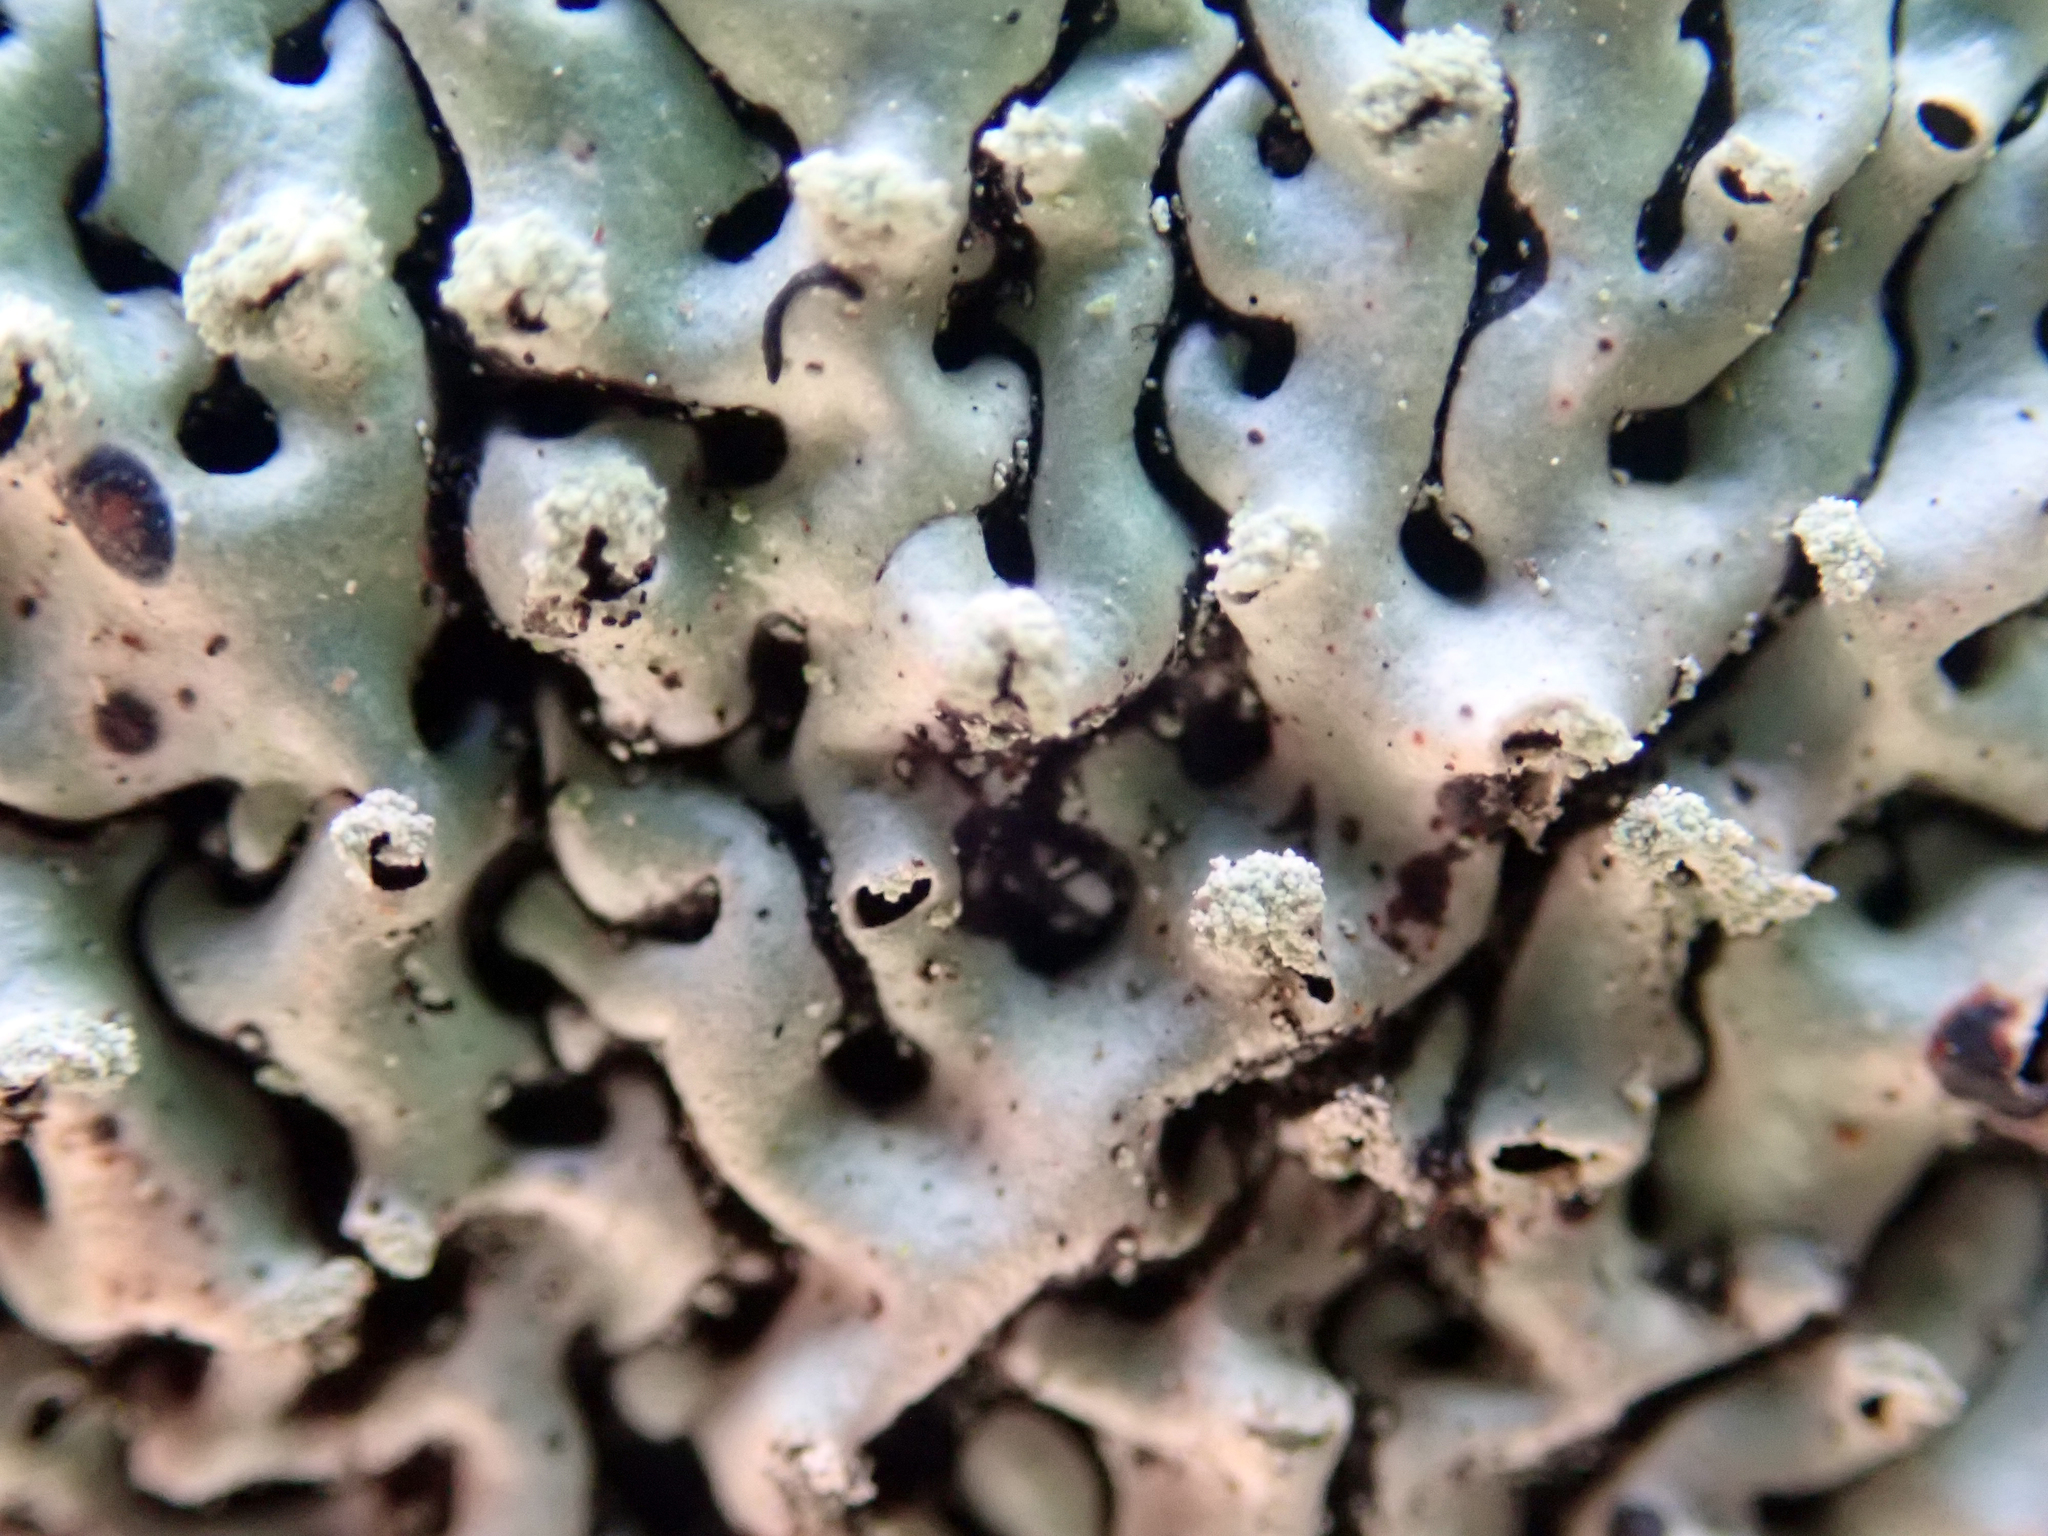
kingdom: Fungi
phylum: Ascomycota
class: Lecanoromycetes
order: Lecanorales
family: Parmeliaceae
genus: Menegazzia
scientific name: Menegazzia neozelandica
